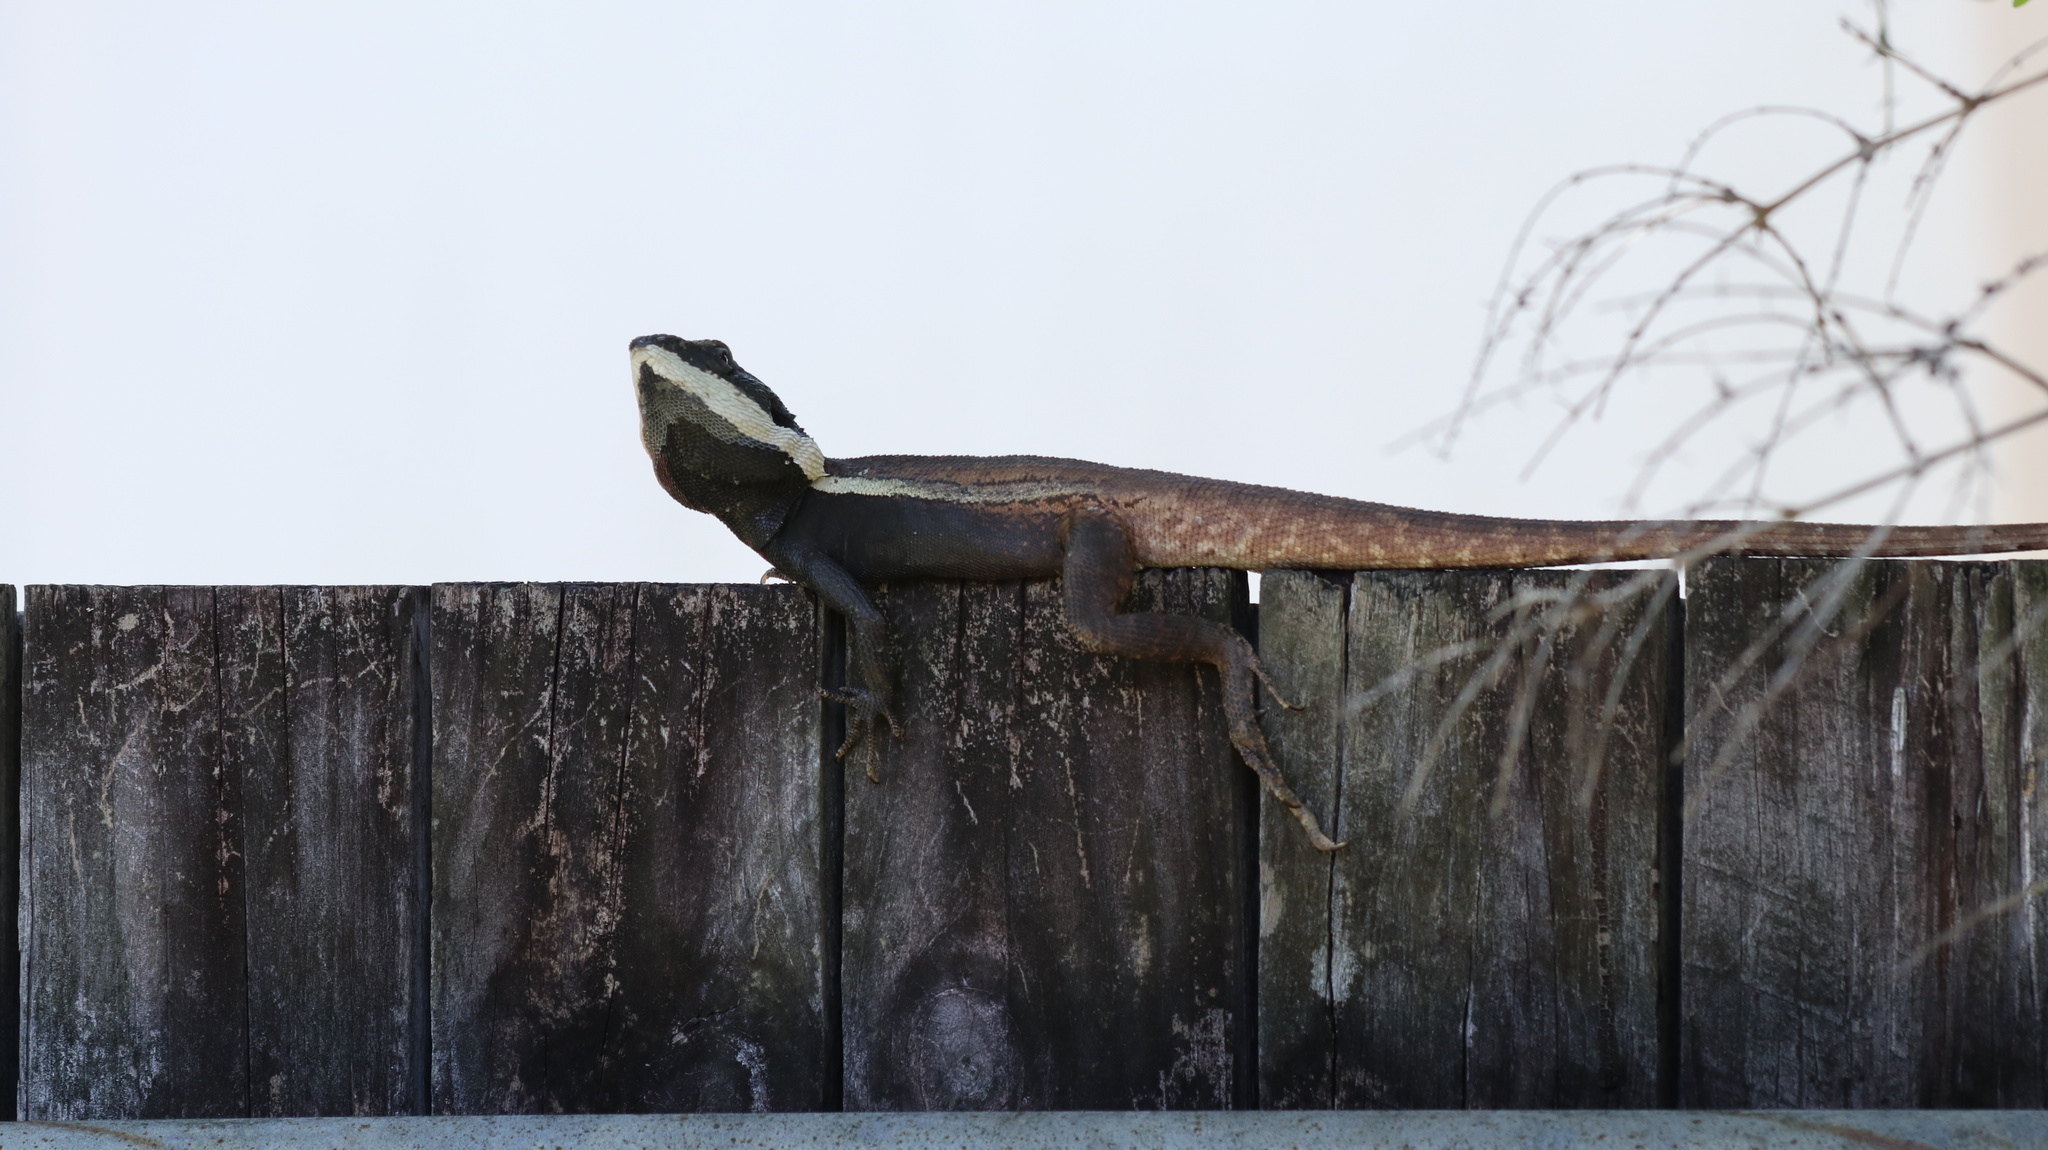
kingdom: Animalia
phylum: Chordata
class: Squamata
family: Agamidae
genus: Lophognathus
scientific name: Lophognathus horneri
